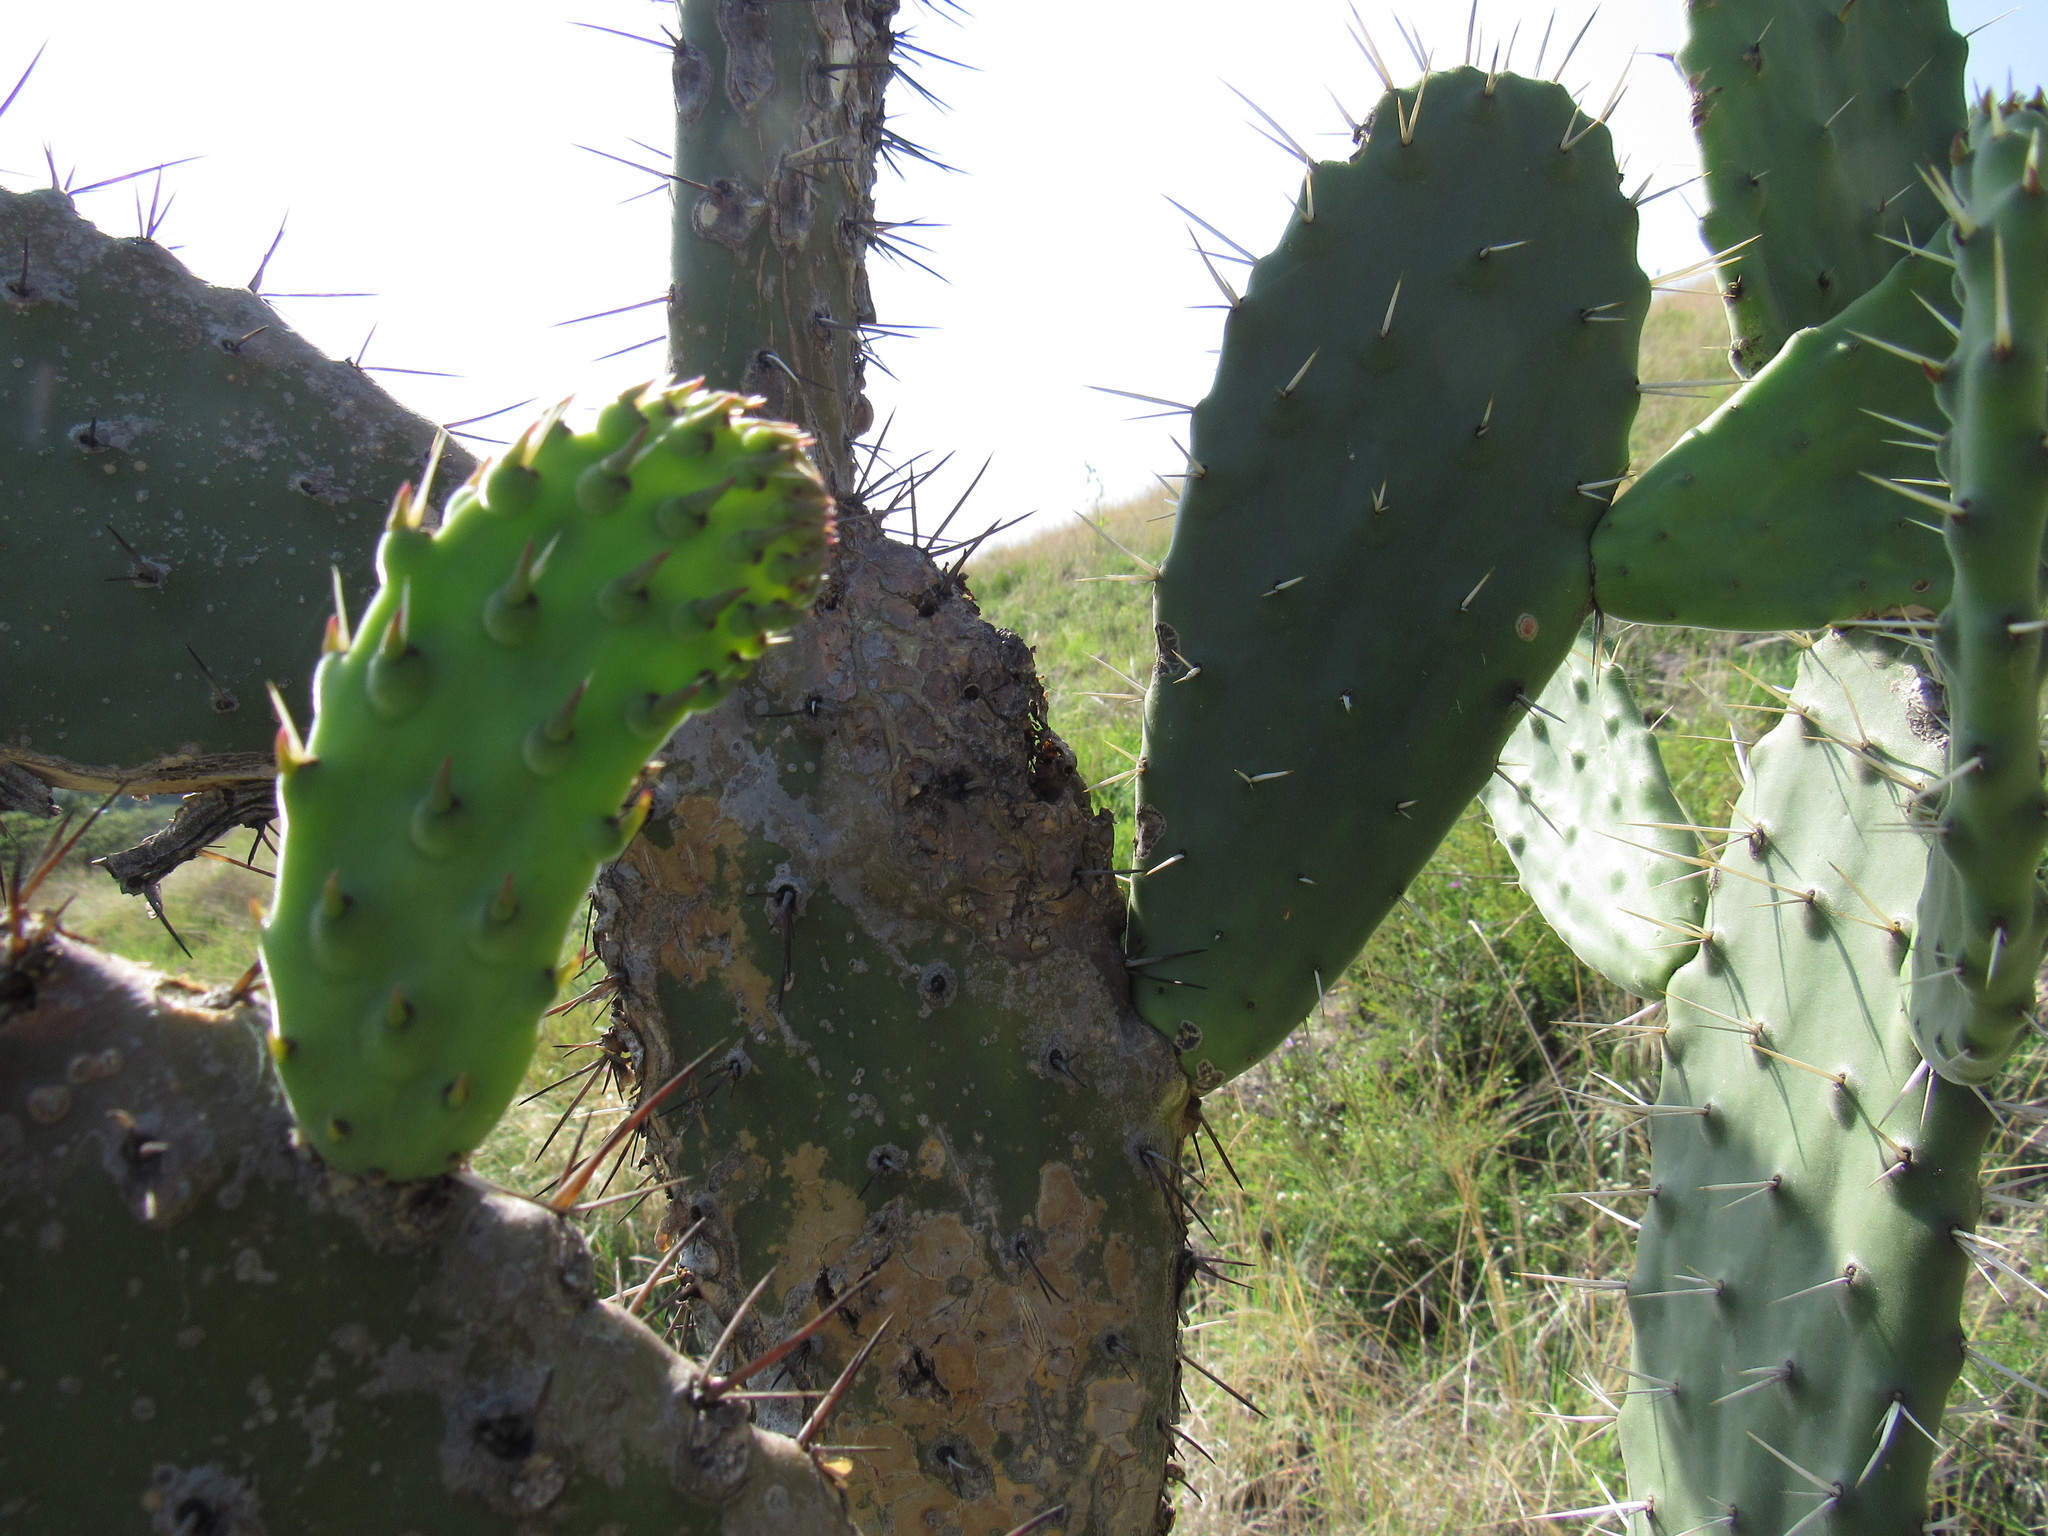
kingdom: Plantae
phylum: Tracheophyta
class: Magnoliopsida
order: Caryophyllales
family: Cactaceae
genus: Opuntia
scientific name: Opuntia tomentosa
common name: Woollyjoint pricklypear
